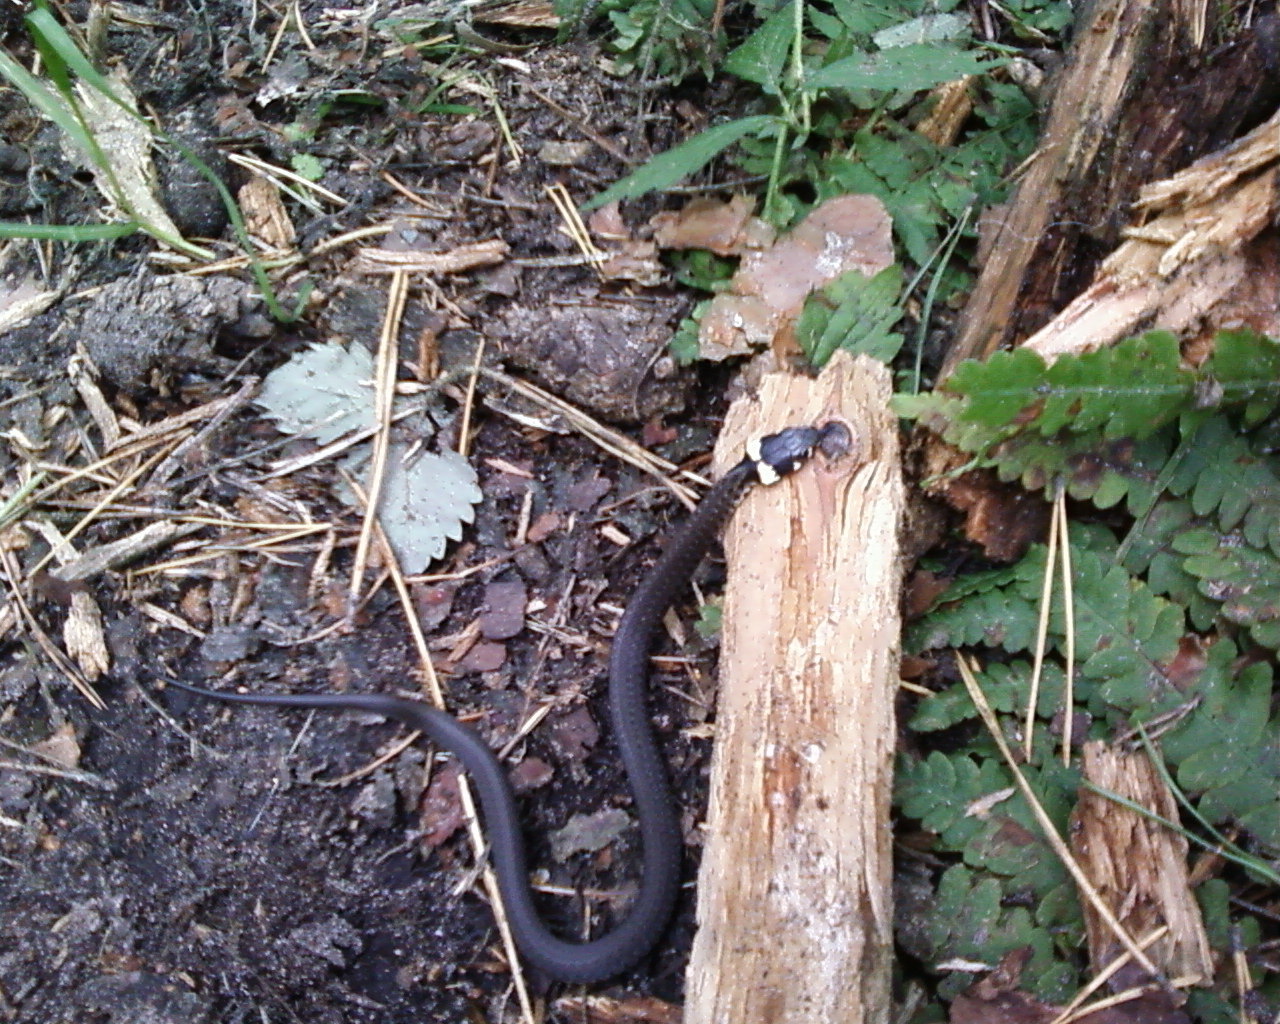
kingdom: Animalia
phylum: Chordata
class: Squamata
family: Colubridae
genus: Natrix
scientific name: Natrix natrix
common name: Grass snake
